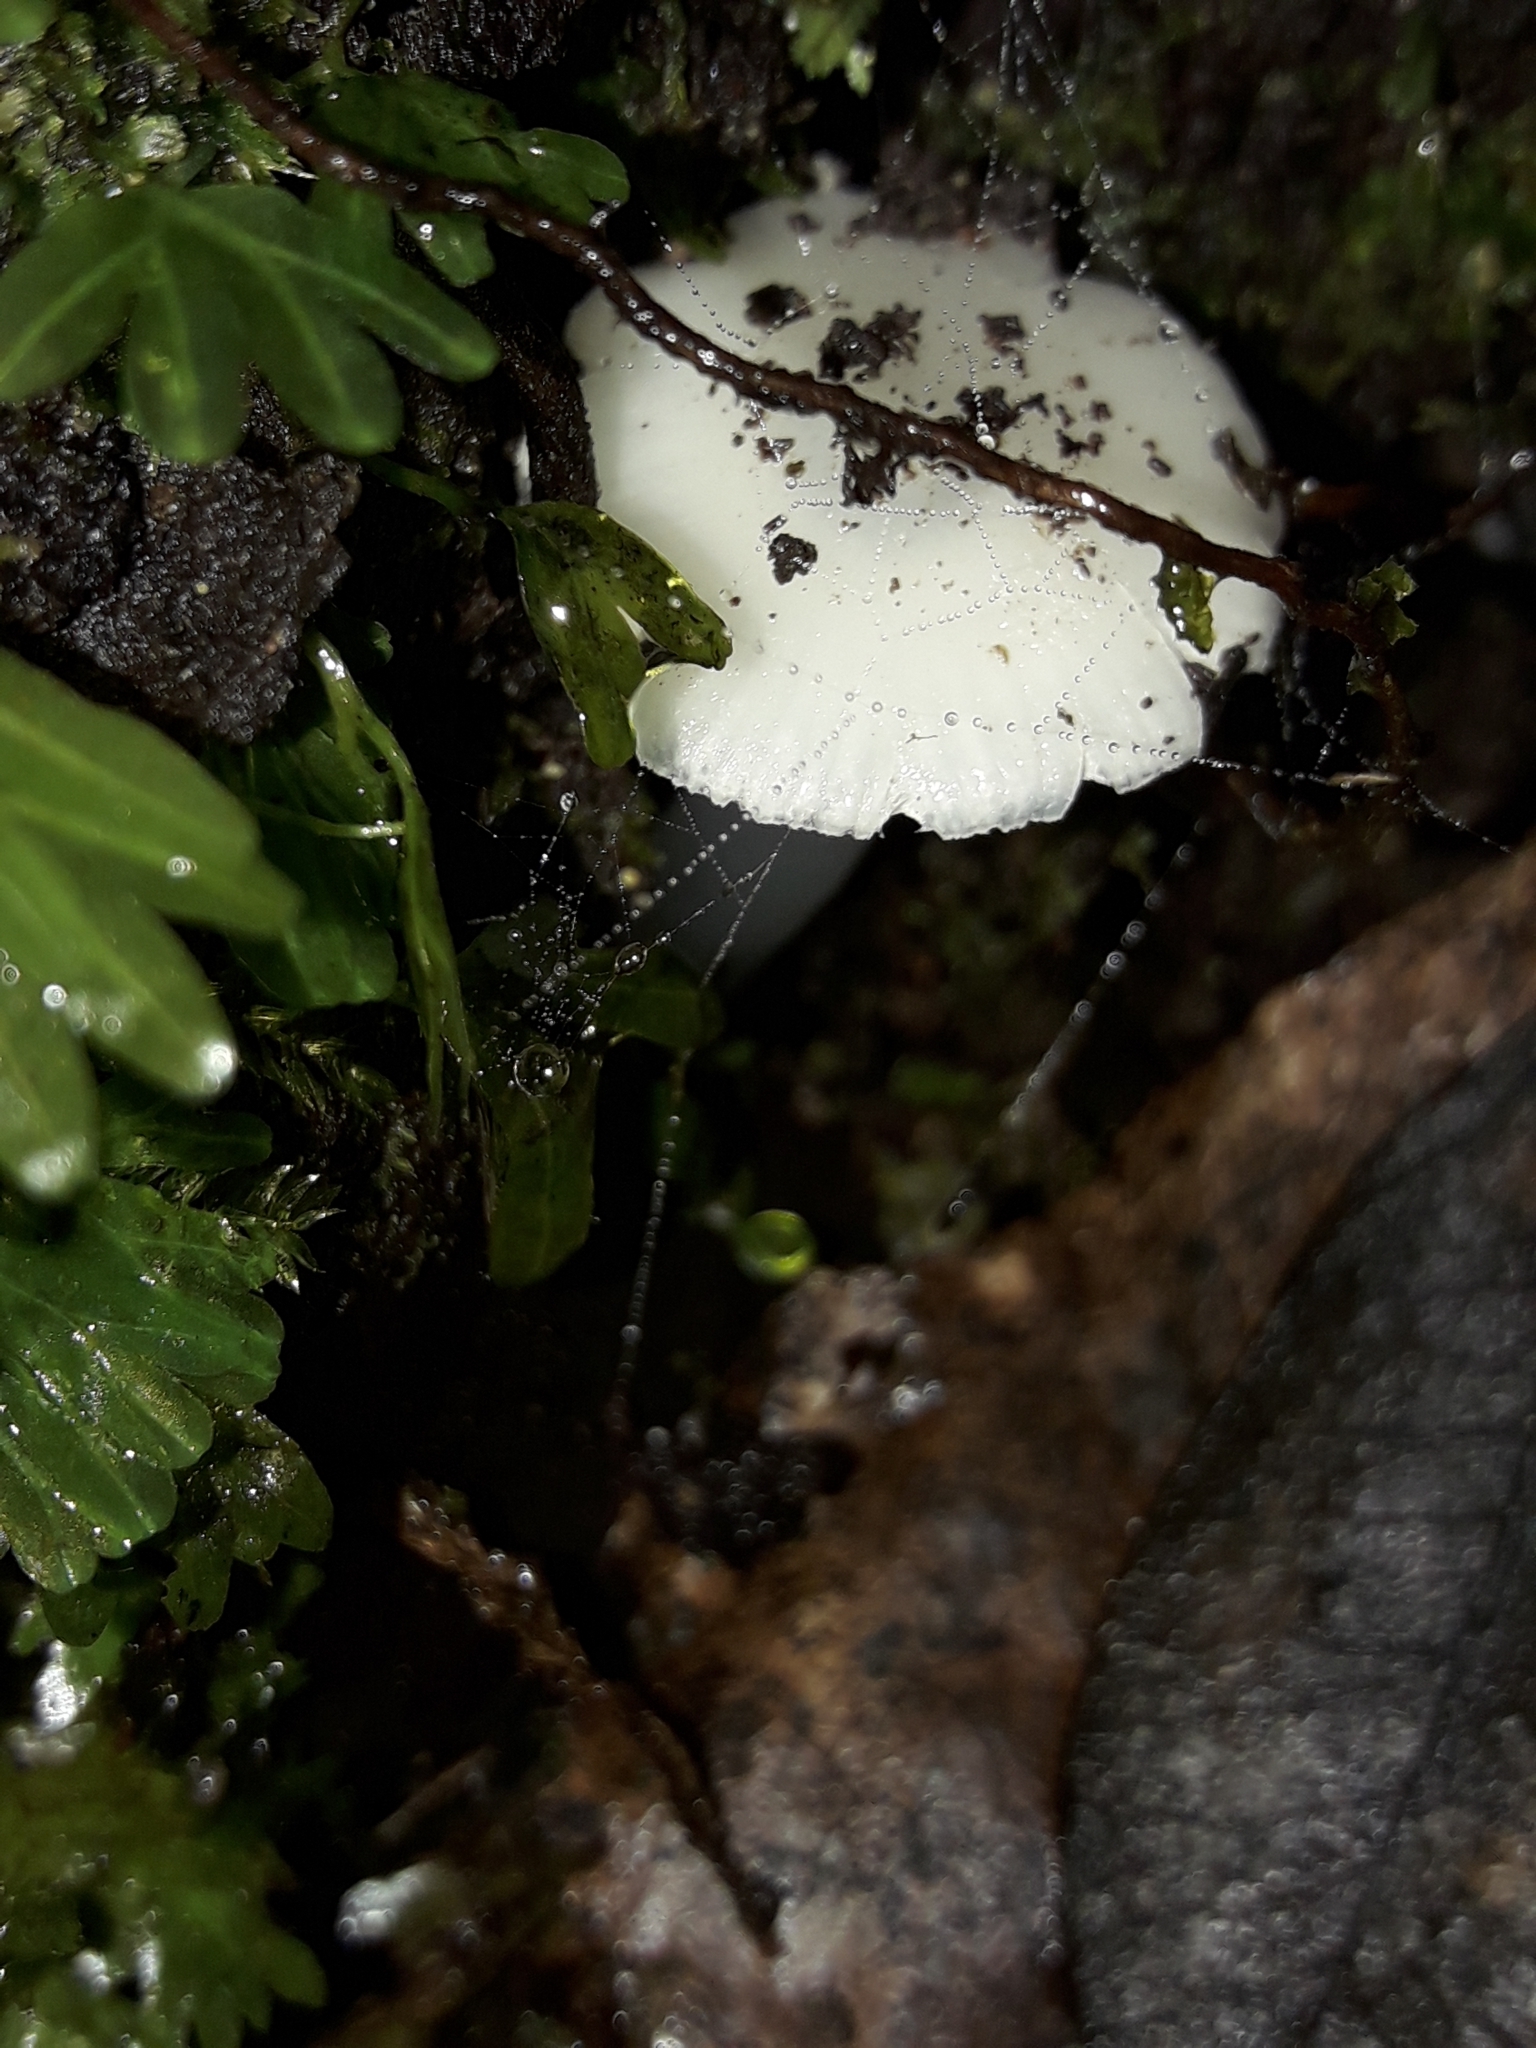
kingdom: Fungi
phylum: Basidiomycota
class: Agaricomycetes
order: Agaricales
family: Hygrophoraceae
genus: Humidicutis
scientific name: Humidicutis mavis
